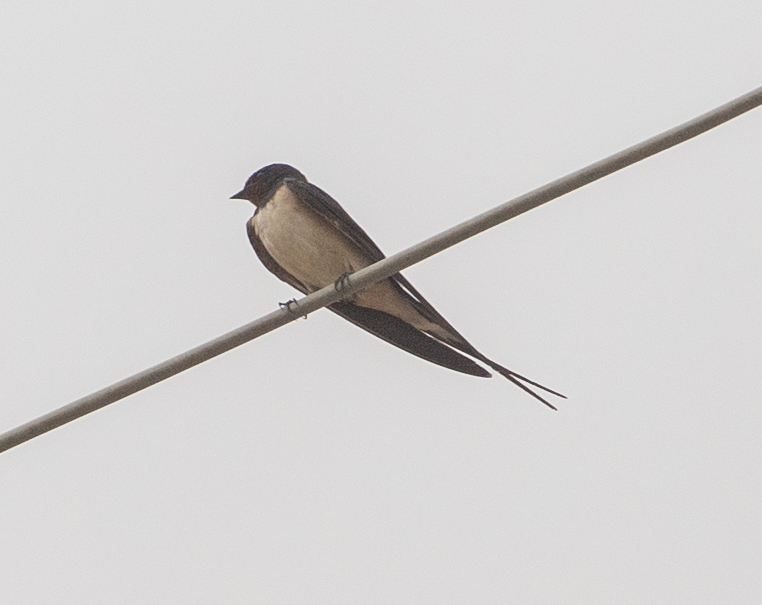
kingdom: Animalia
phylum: Chordata
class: Aves
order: Passeriformes
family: Hirundinidae
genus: Hirundo
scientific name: Hirundo rustica
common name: Barn swallow
